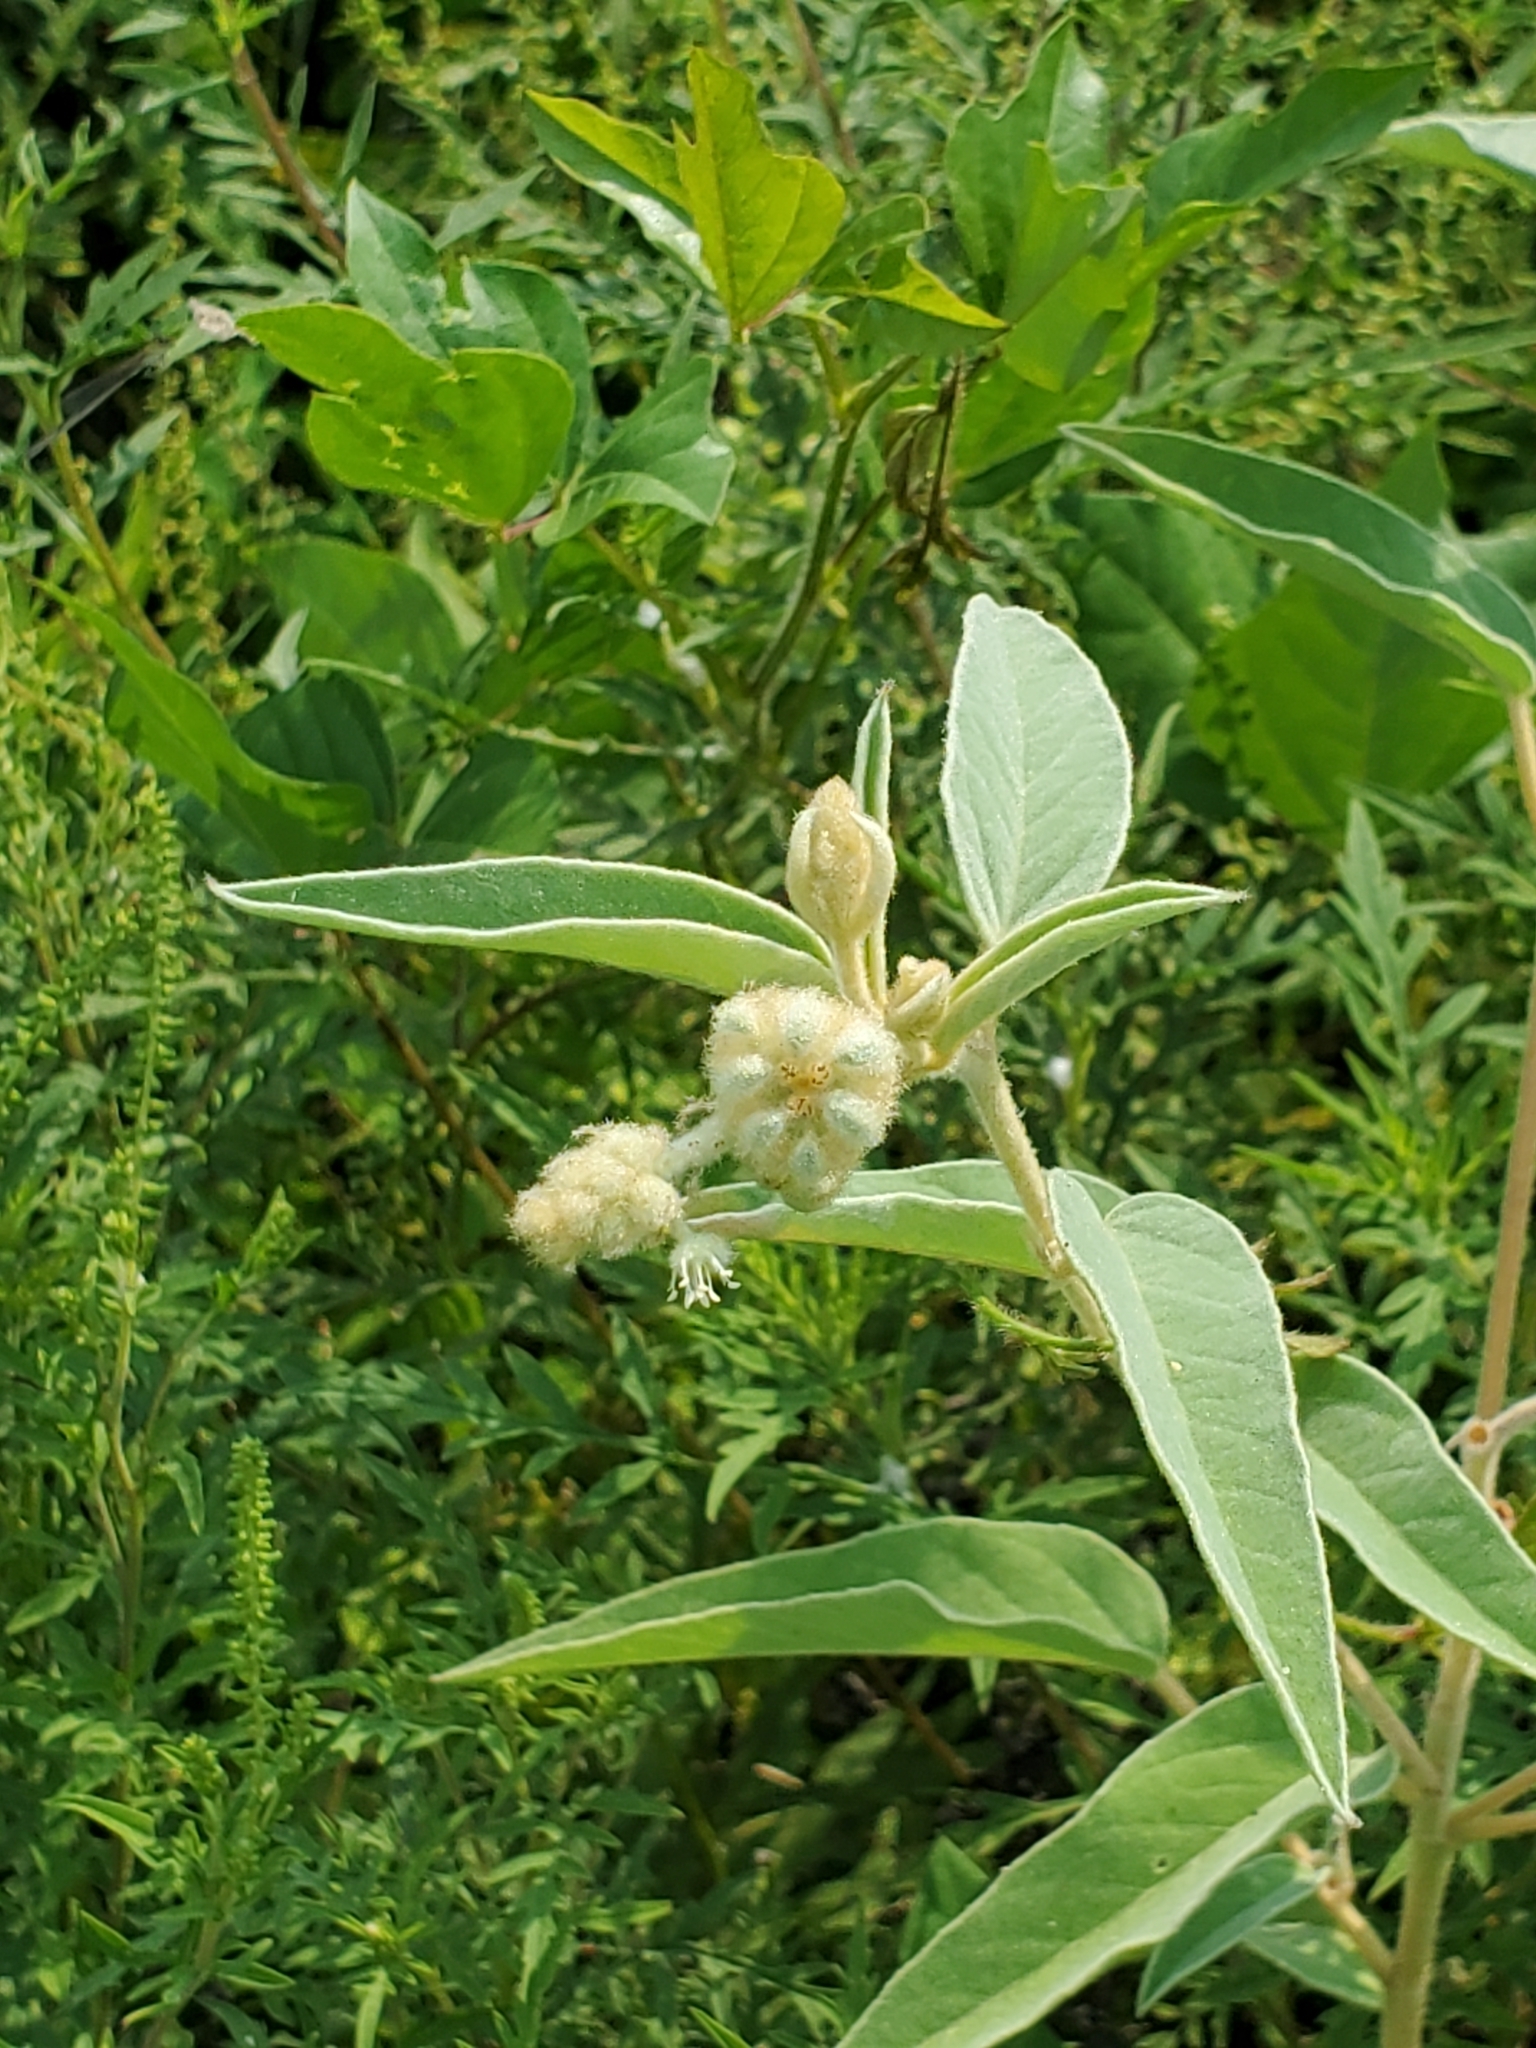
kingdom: Plantae
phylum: Tracheophyta
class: Magnoliopsida
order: Malpighiales
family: Euphorbiaceae
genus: Croton
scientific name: Croton lindheimeri
